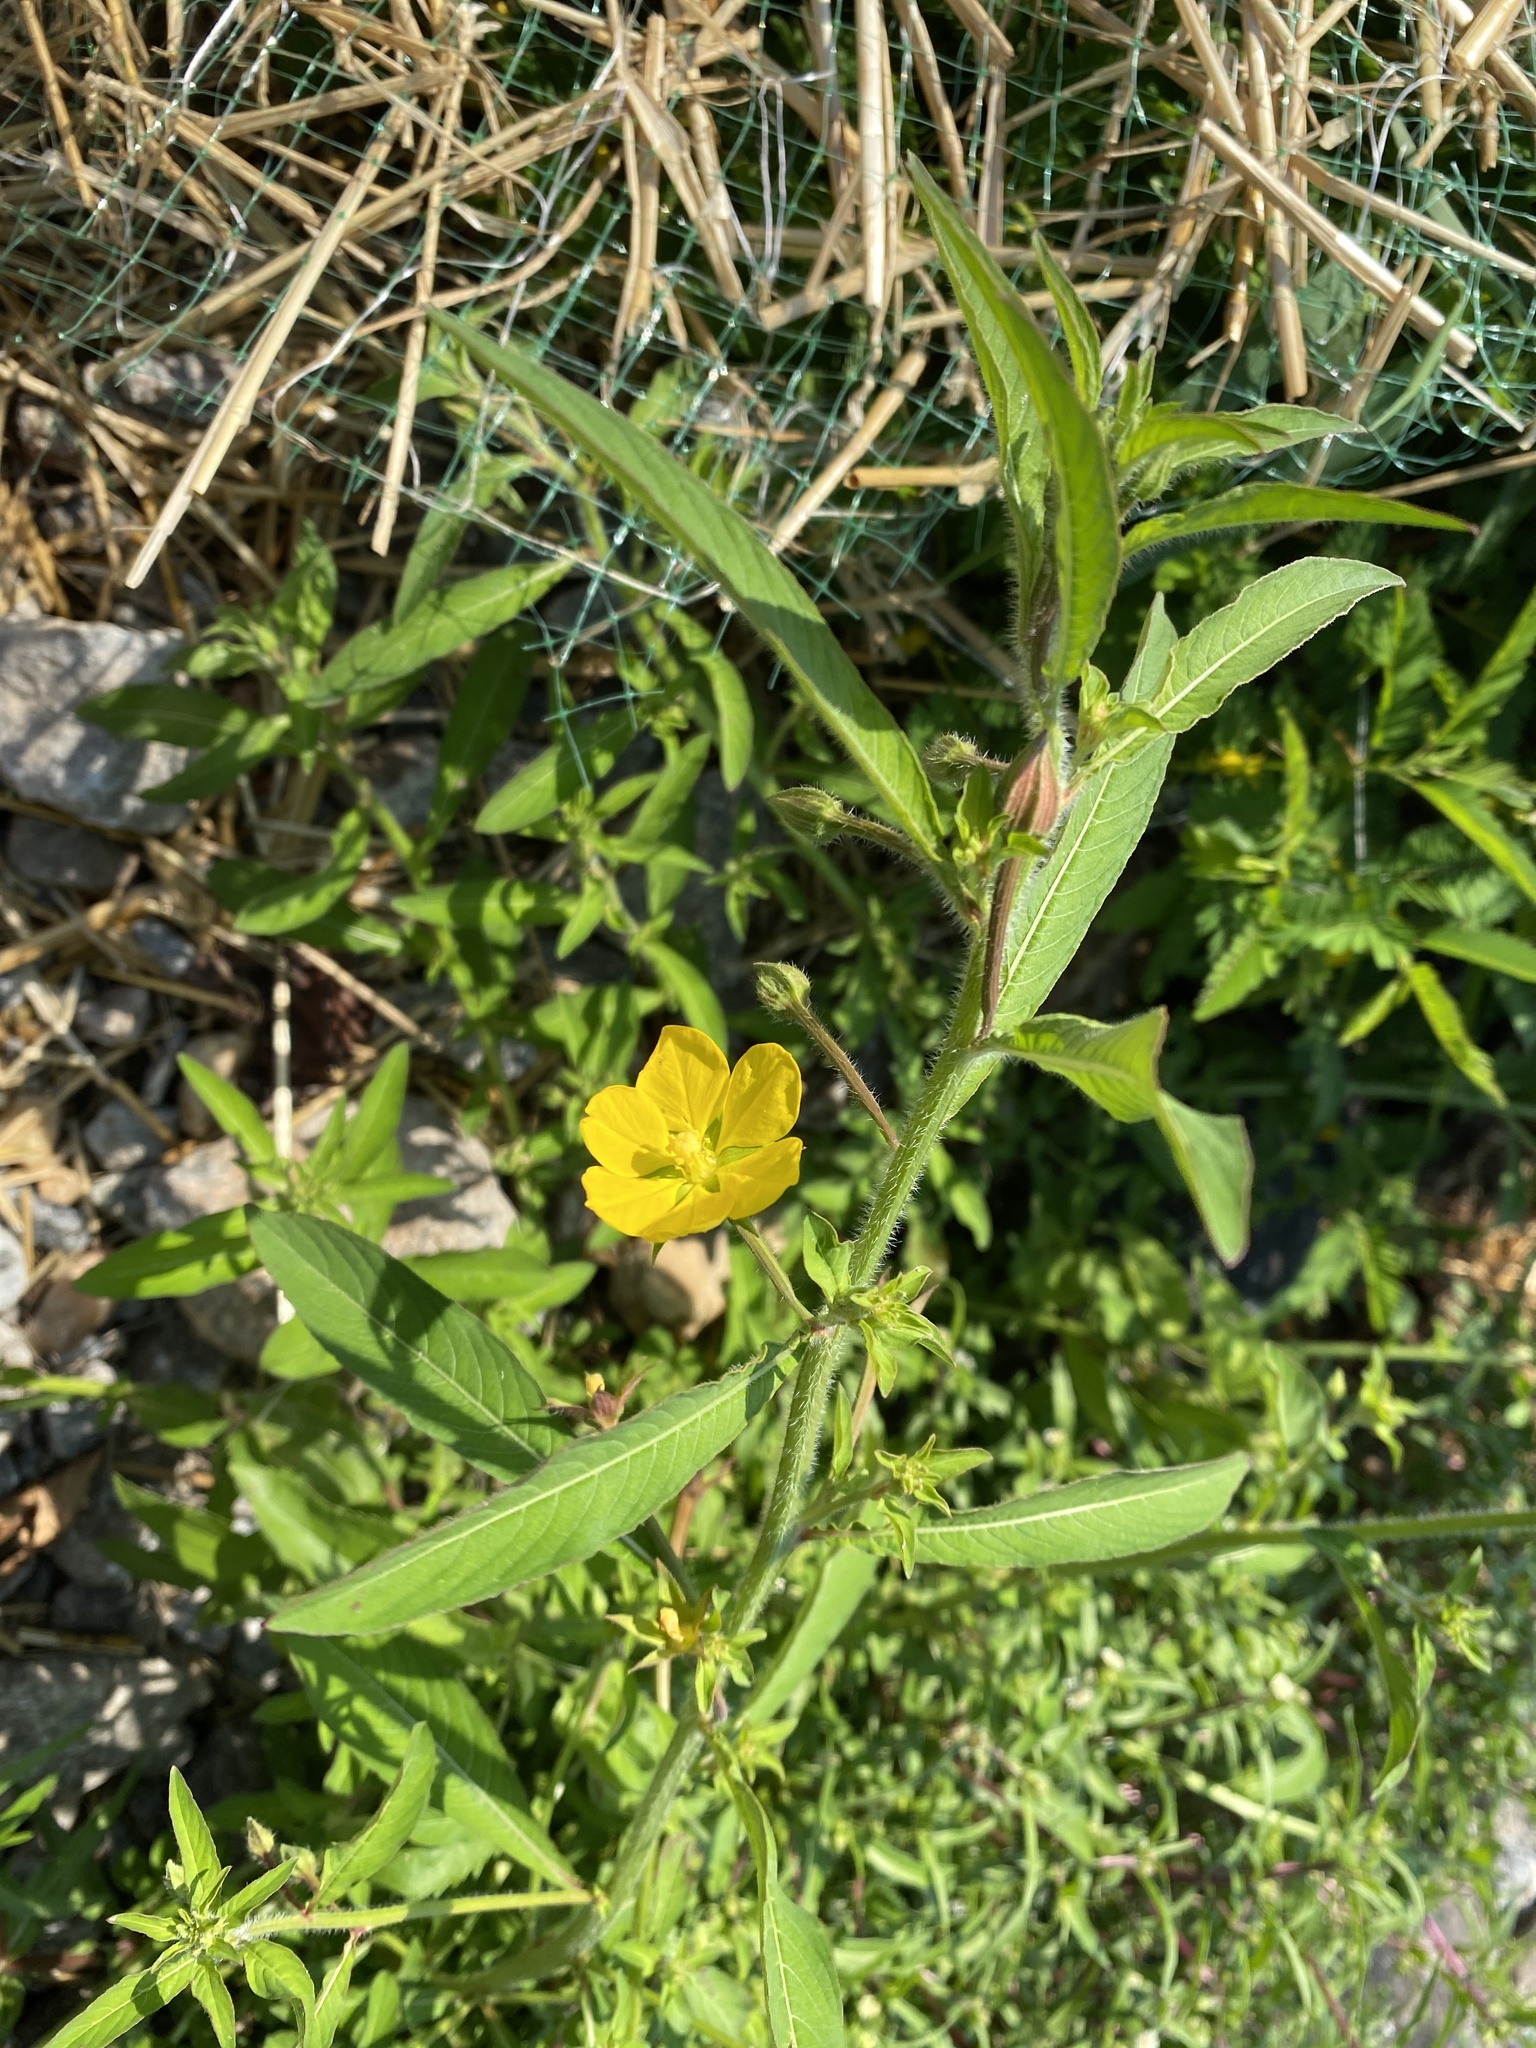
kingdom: Plantae
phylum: Tracheophyta
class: Magnoliopsida
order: Myrtales
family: Onagraceae
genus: Ludwigia
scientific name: Ludwigia leptocarpa
